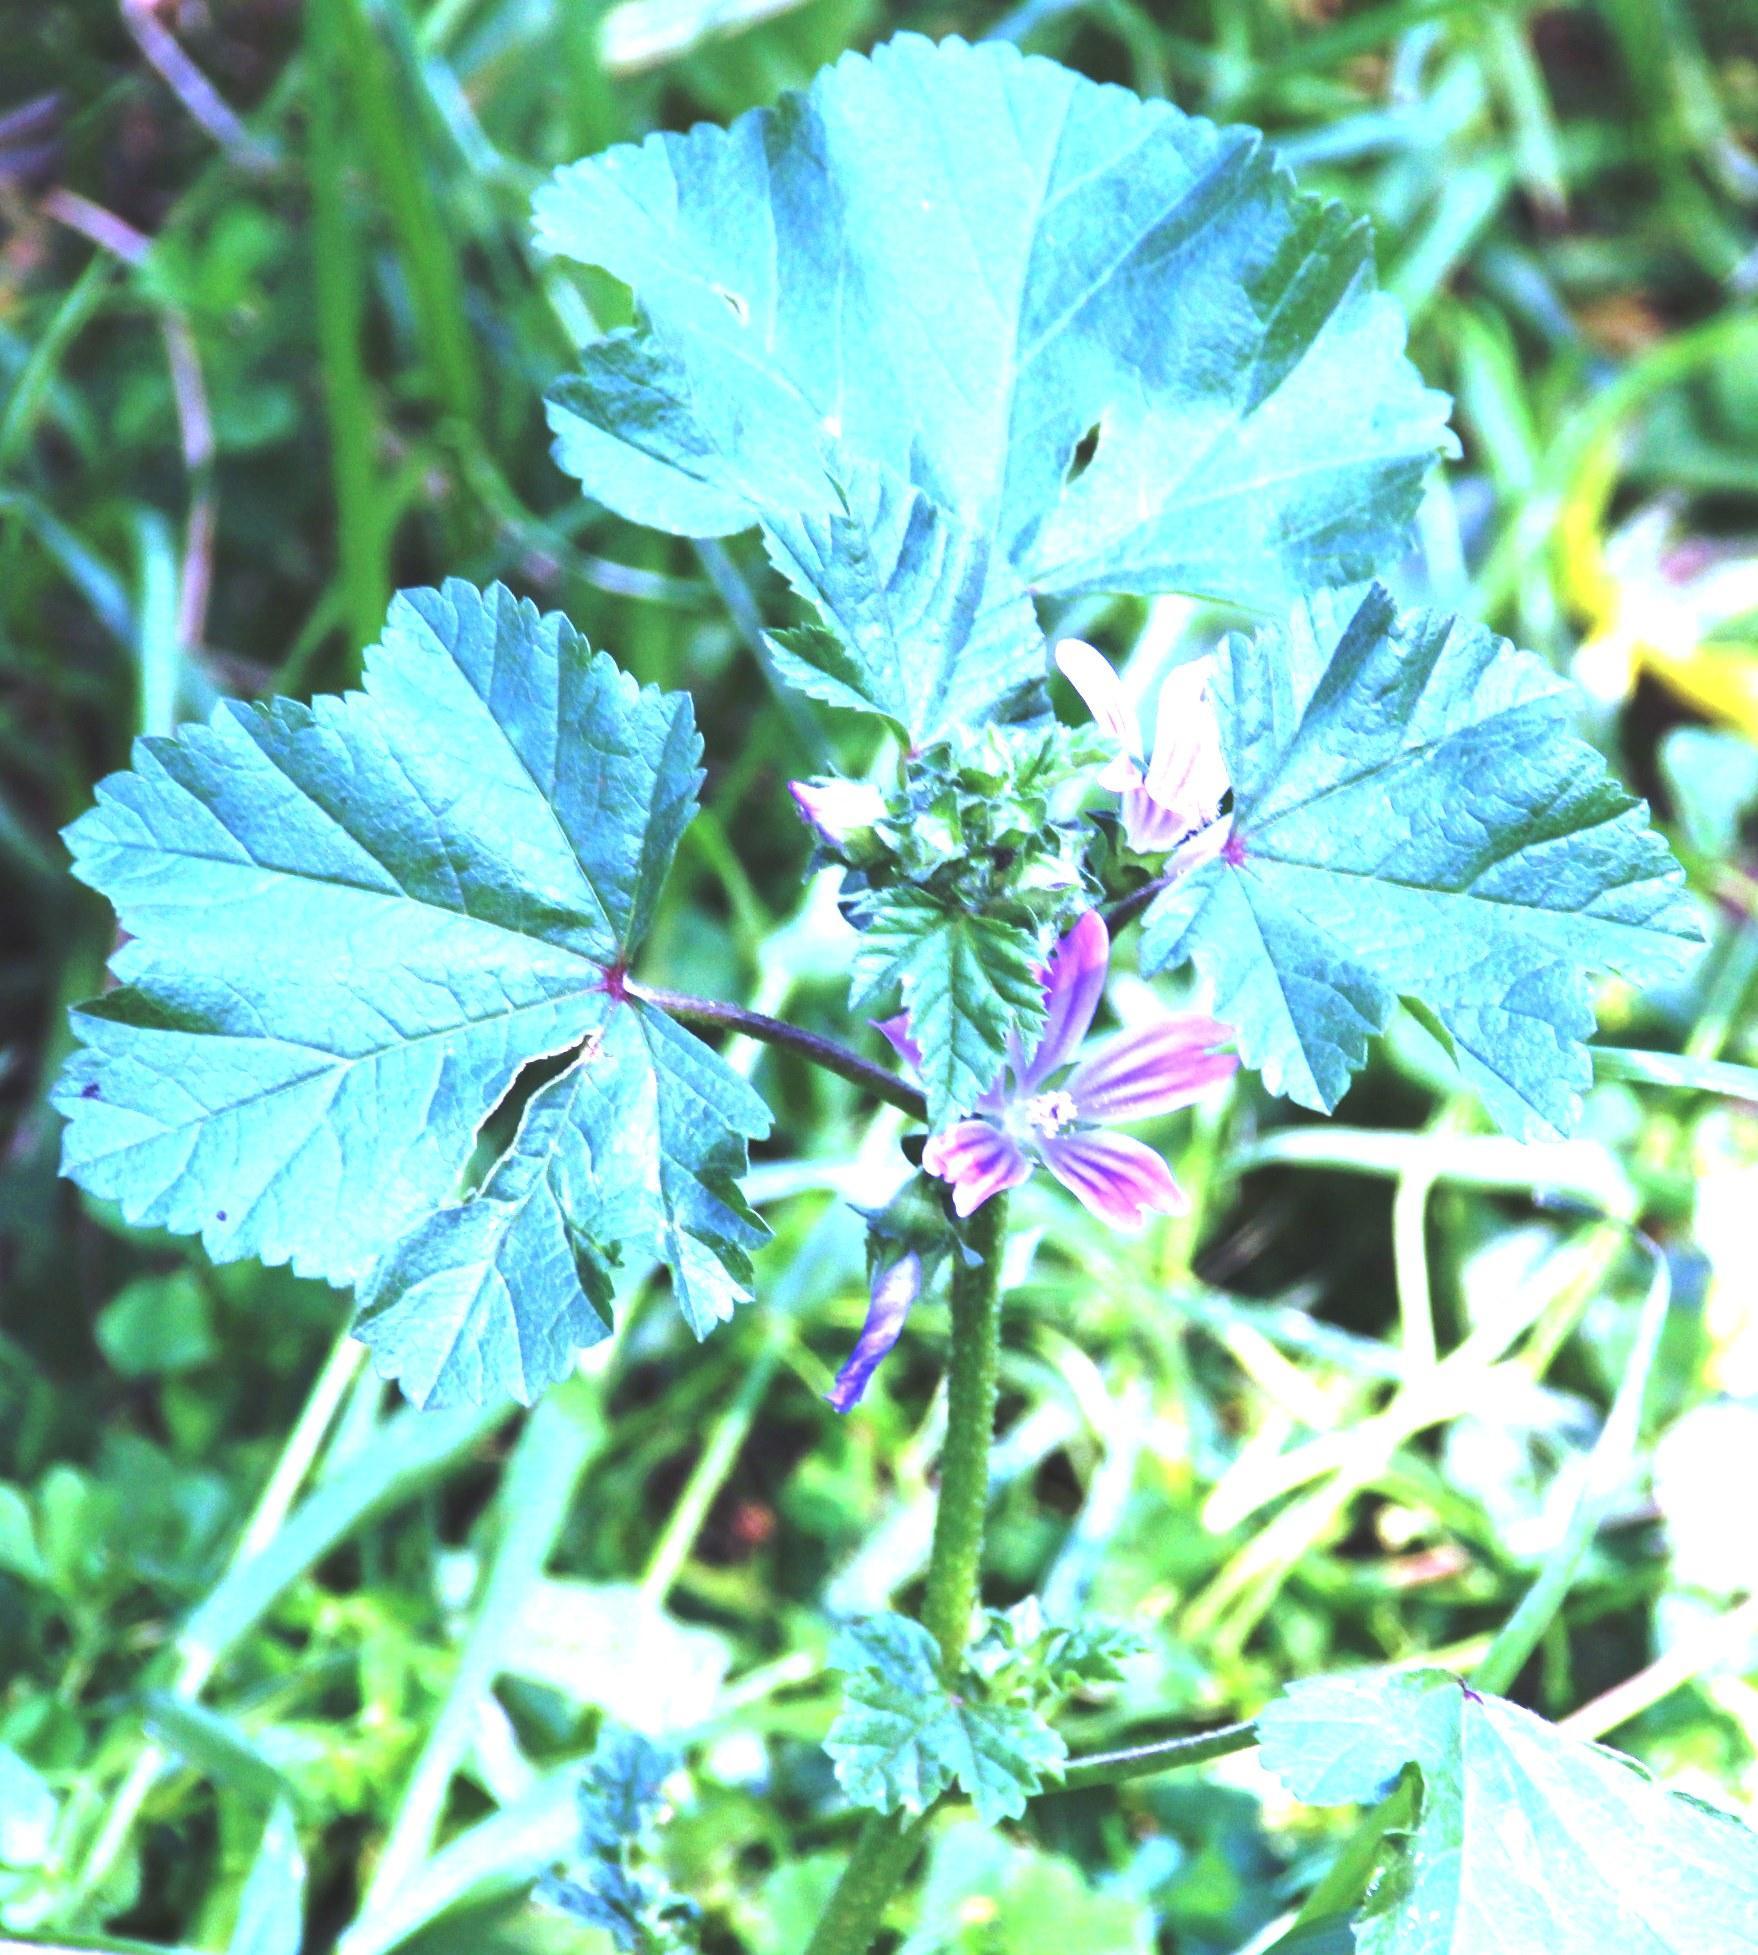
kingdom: Plantae
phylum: Tracheophyta
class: Magnoliopsida
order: Malvales
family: Malvaceae
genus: Malva
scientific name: Malva parviflora
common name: Least mallow
